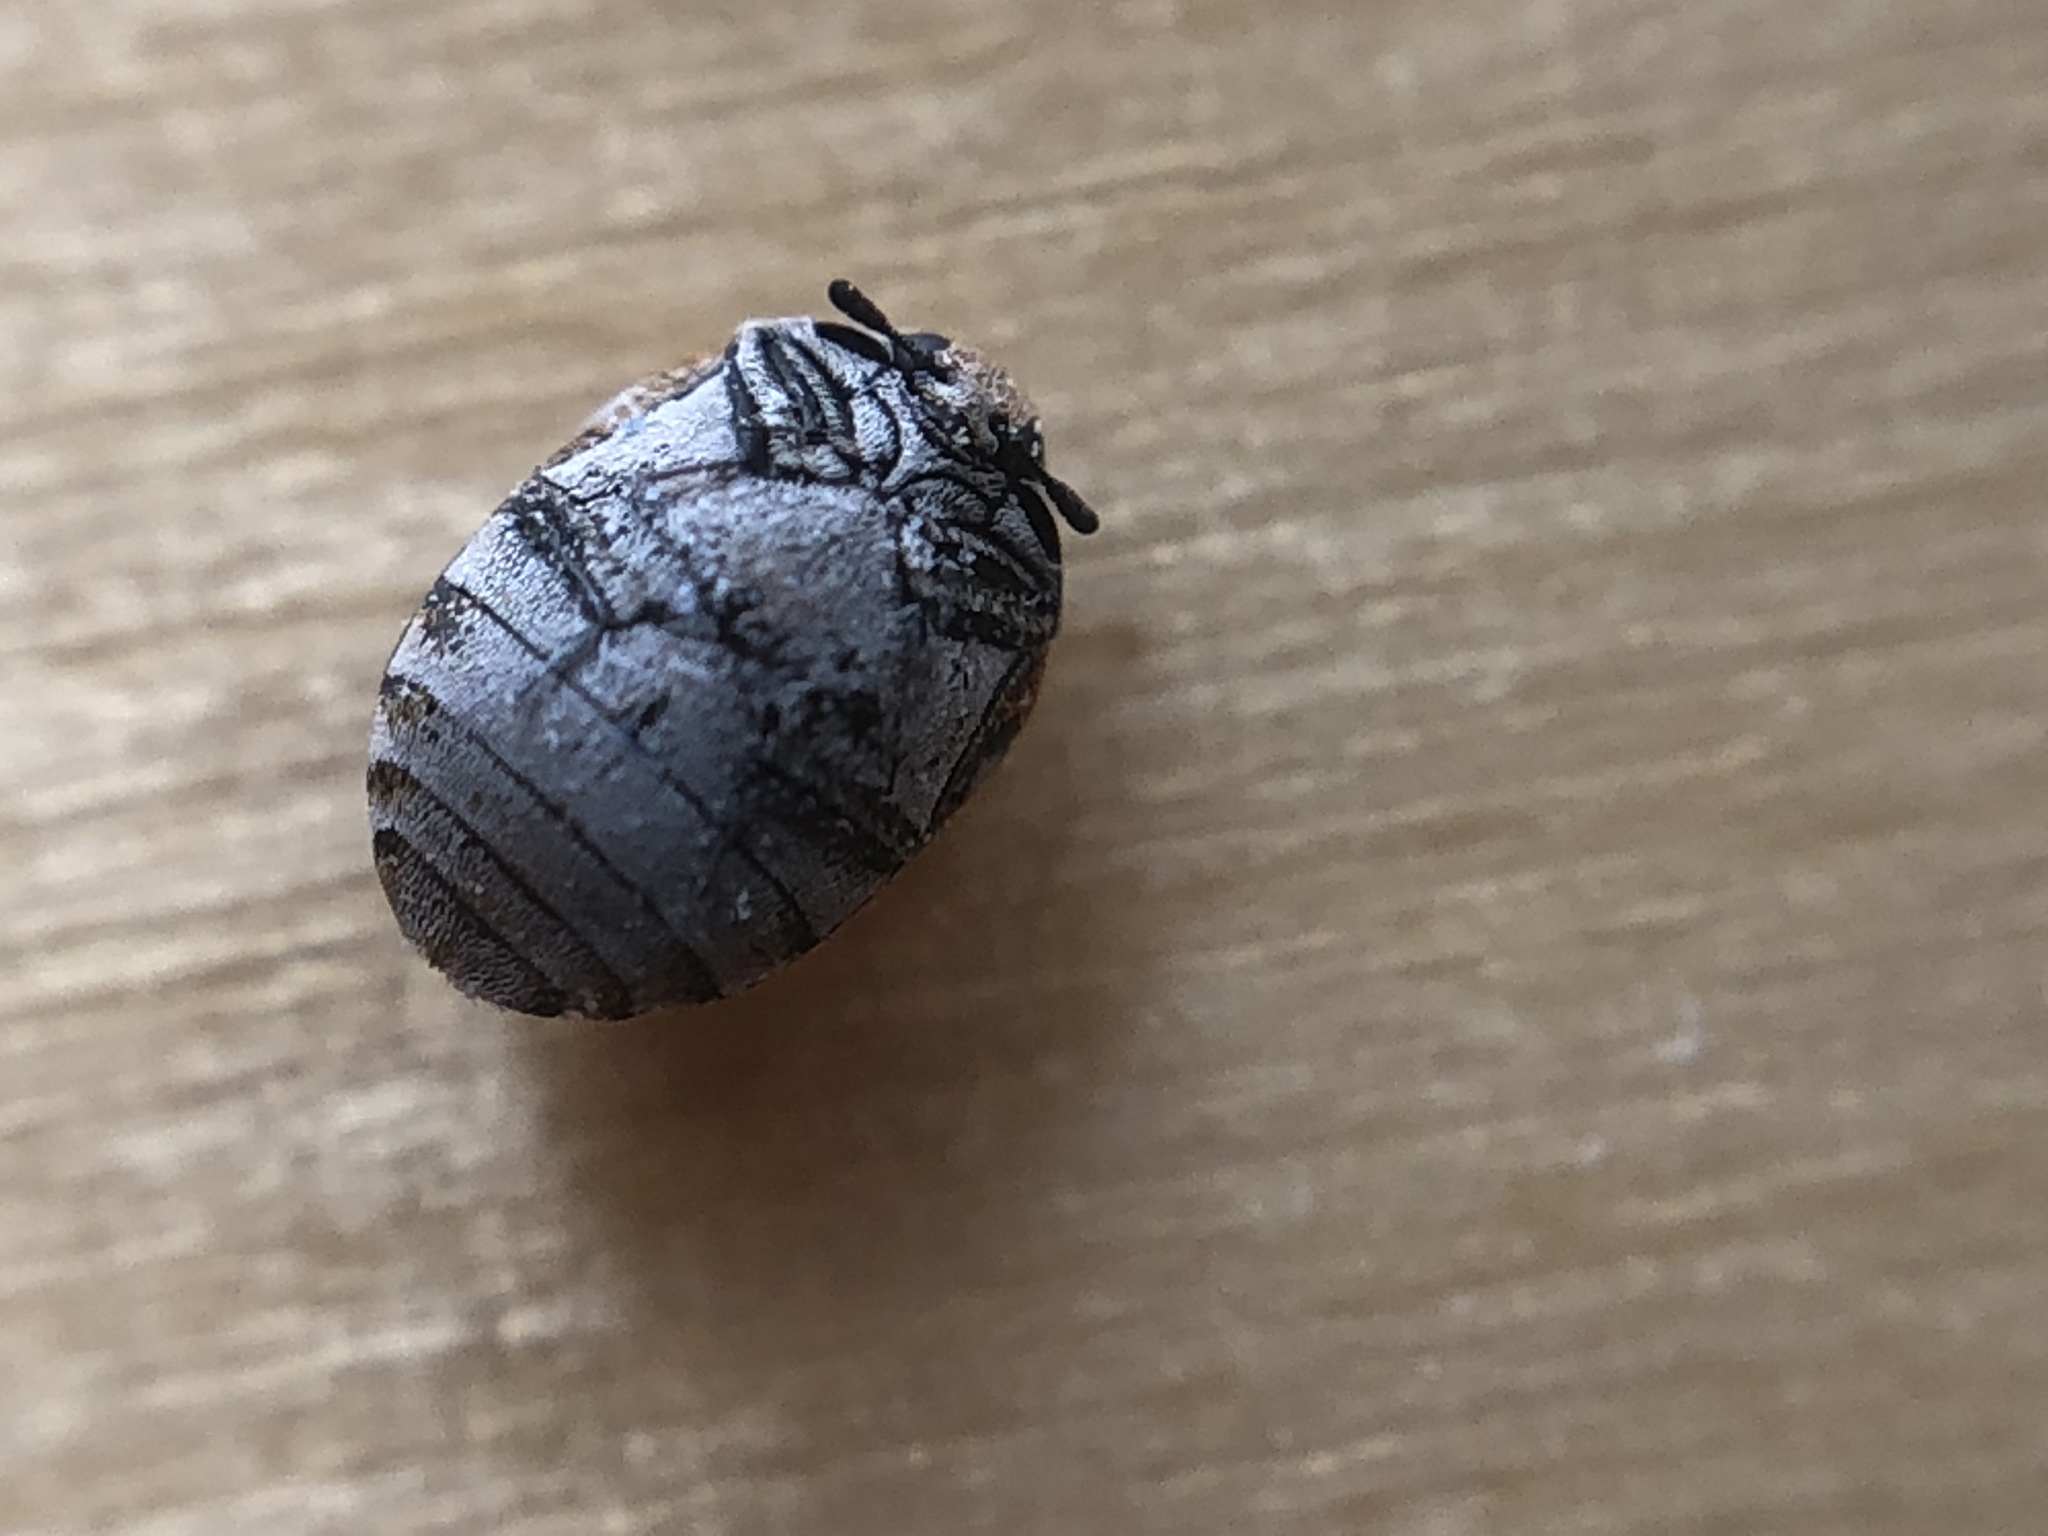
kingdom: Animalia
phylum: Arthropoda
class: Insecta
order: Coleoptera
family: Dermestidae
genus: Anthrenus
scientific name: Anthrenus verbasci
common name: Varied carpet beetle
